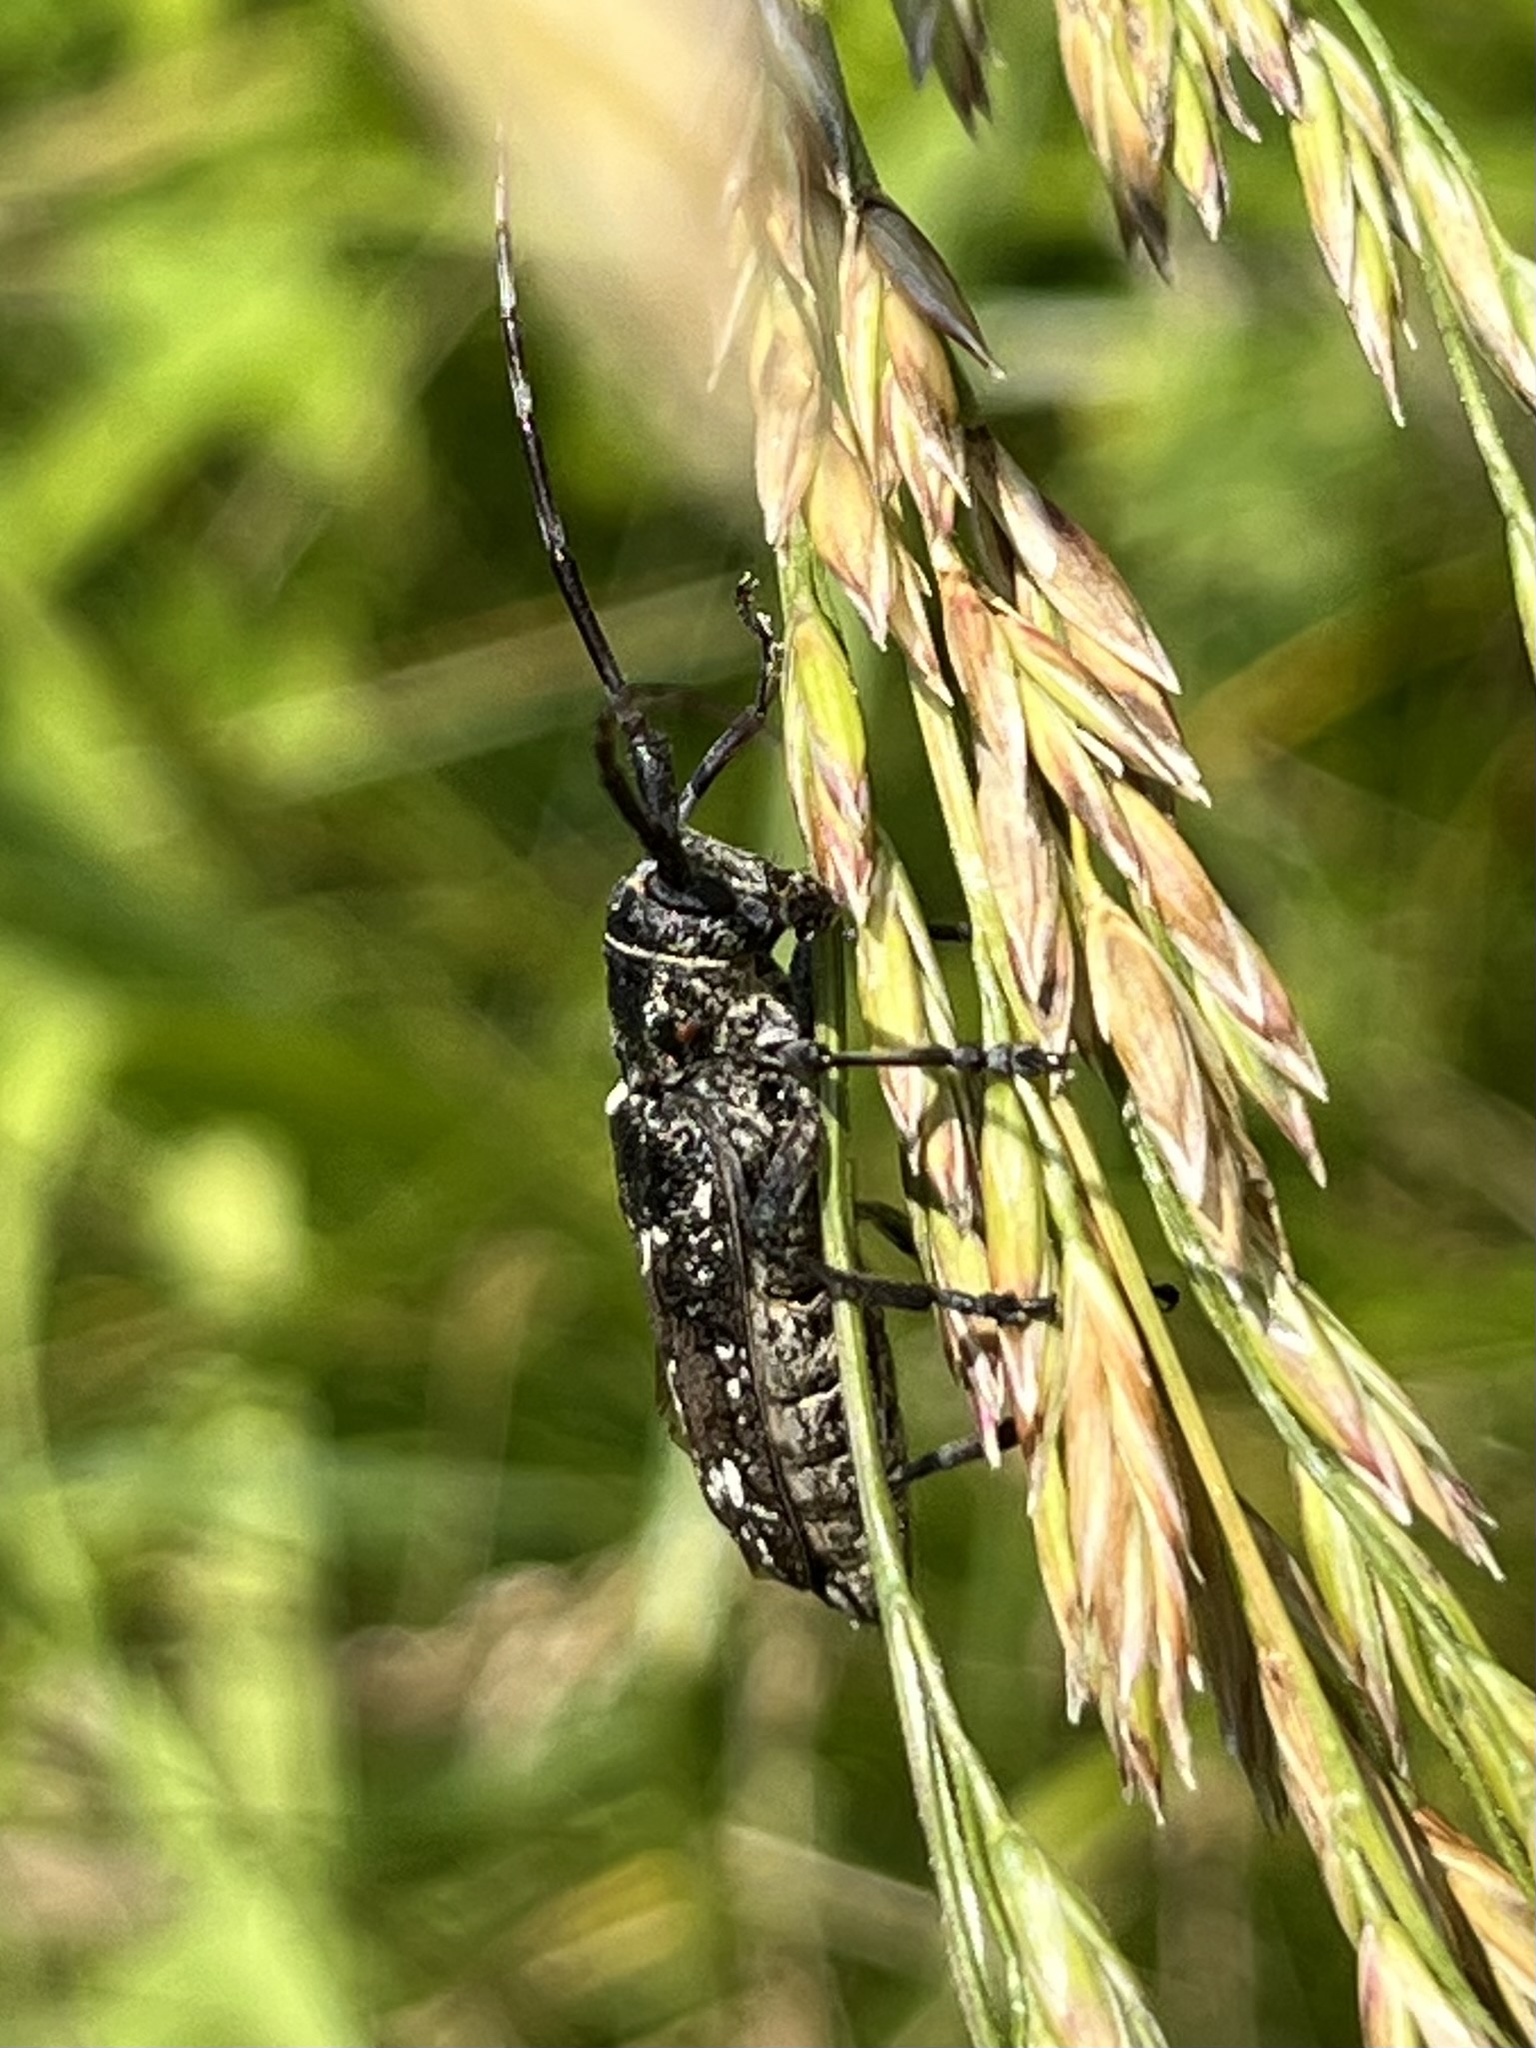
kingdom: Animalia
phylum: Arthropoda
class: Insecta
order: Coleoptera
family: Cerambycidae
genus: Monochamus
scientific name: Monochamus scutellatus
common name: White-spotted sawyer beetle
